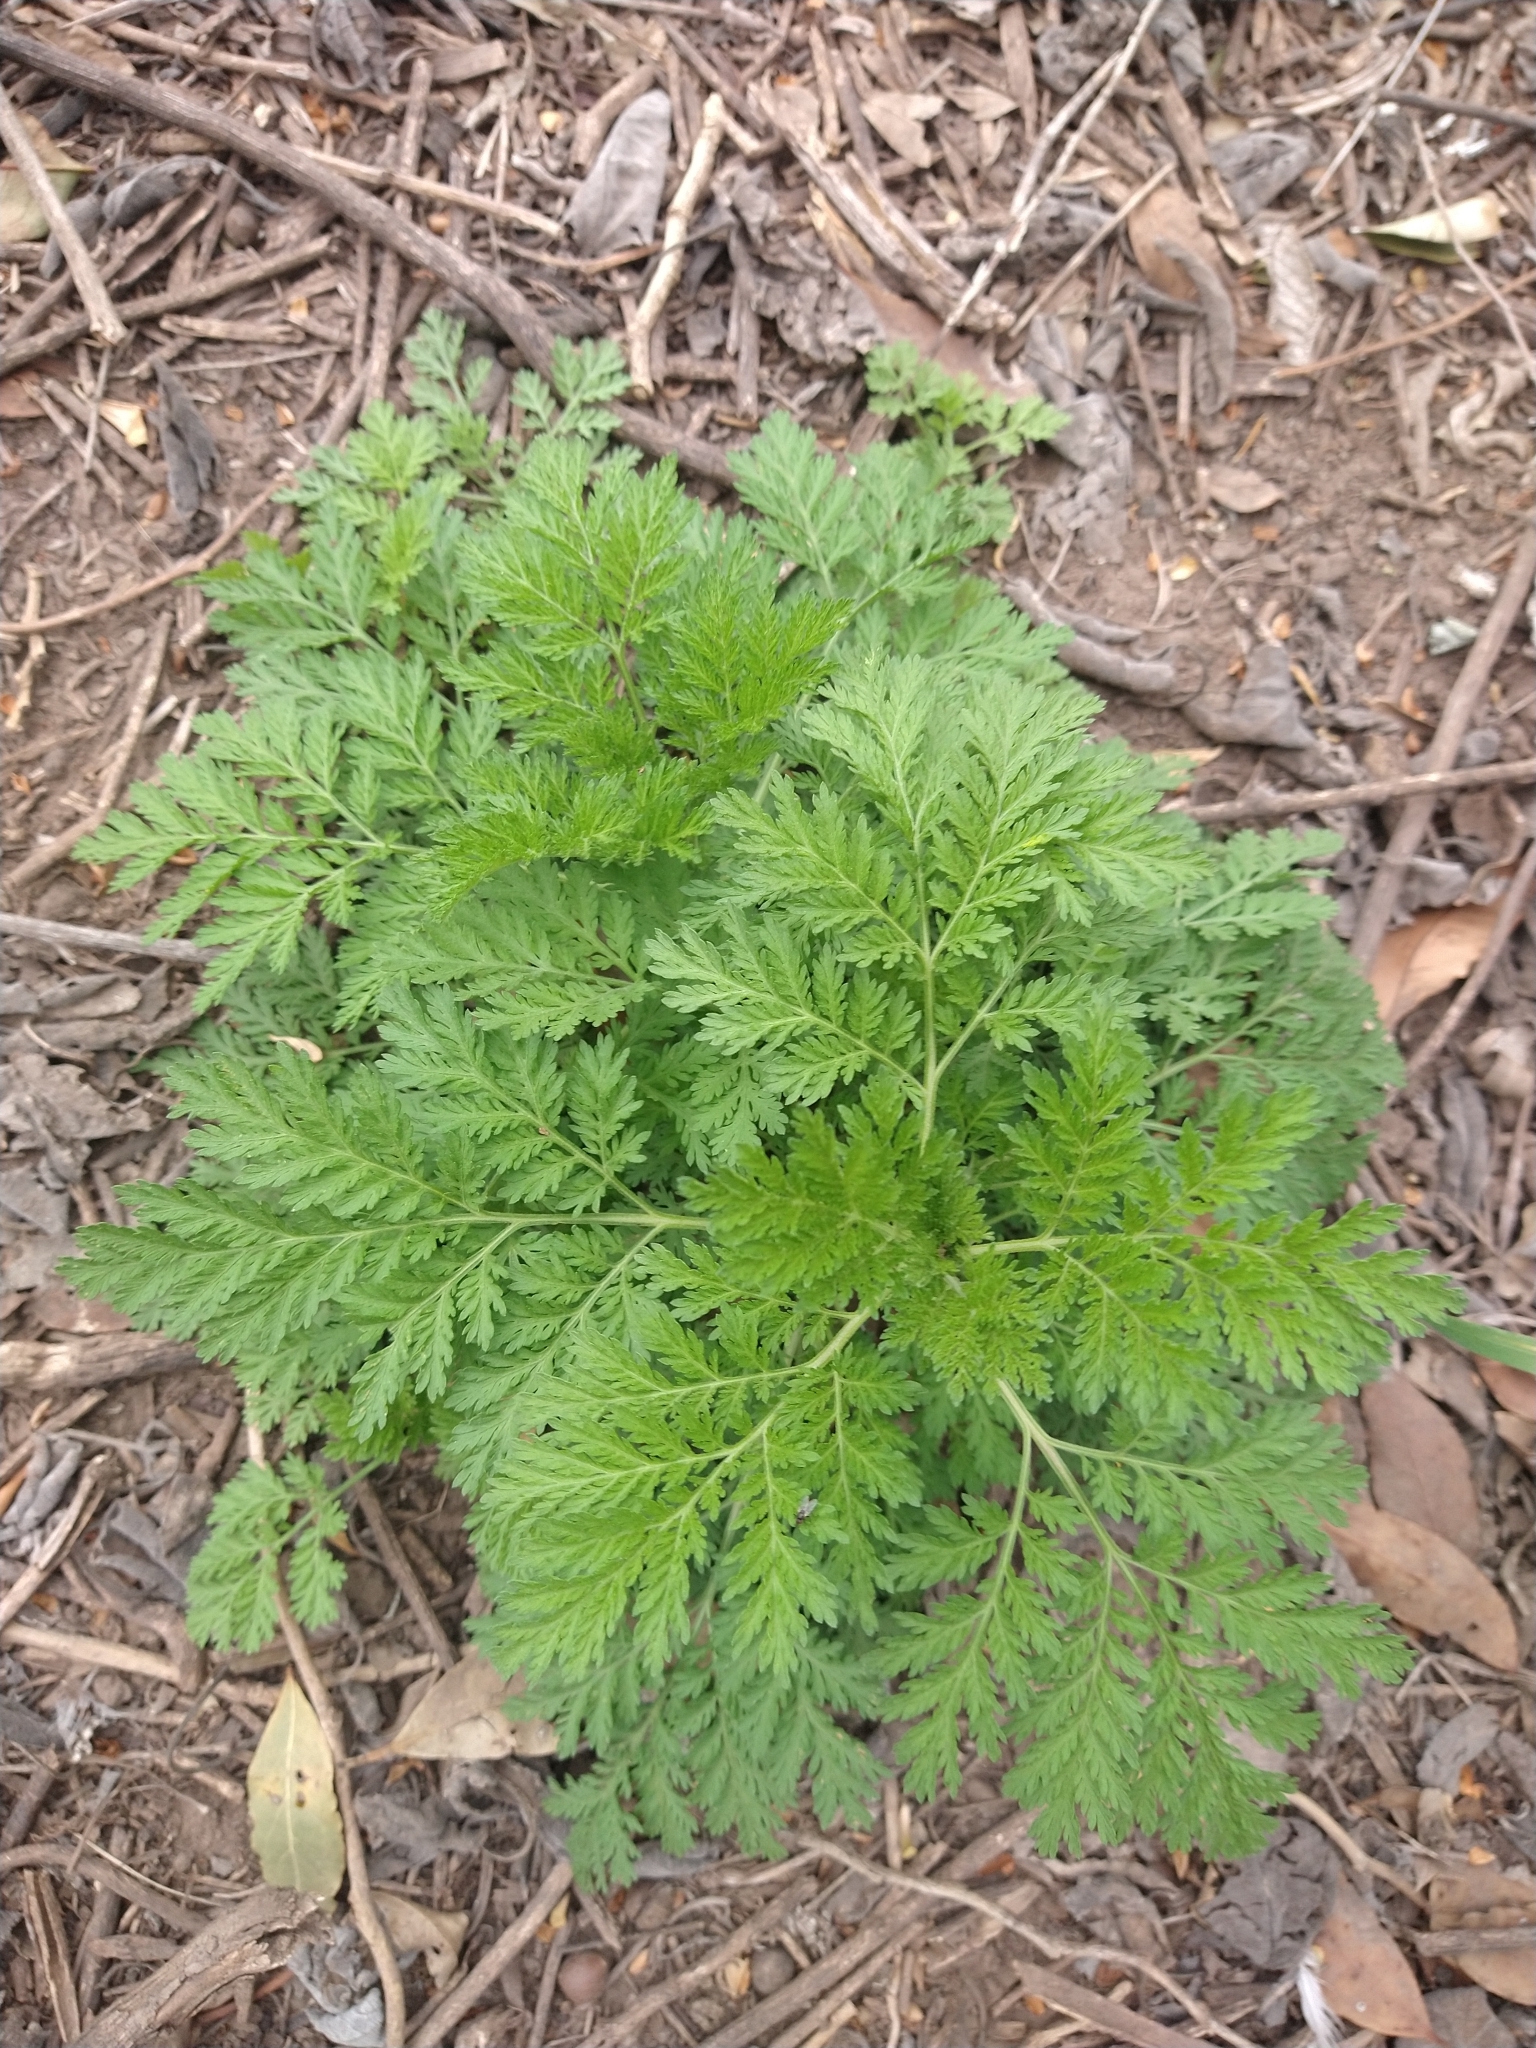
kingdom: Plantae
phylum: Tracheophyta
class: Magnoliopsida
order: Asterales
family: Asteraceae
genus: Artemisia
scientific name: Artemisia annua
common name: Sweet sagewort
